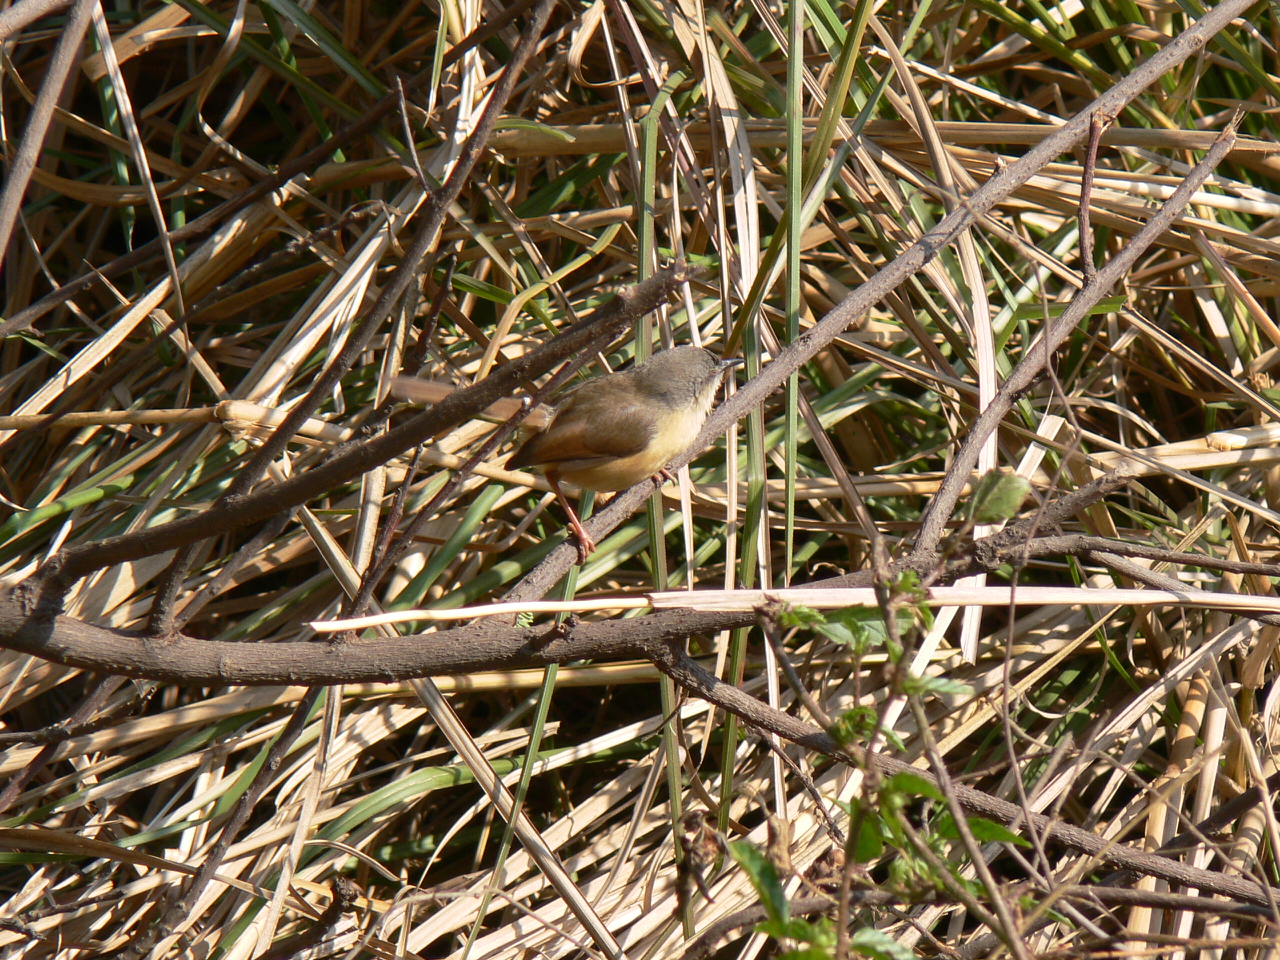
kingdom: Animalia
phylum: Chordata
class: Aves
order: Passeriformes
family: Cisticolidae
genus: Prinia
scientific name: Prinia socialis
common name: Ashy prinia
